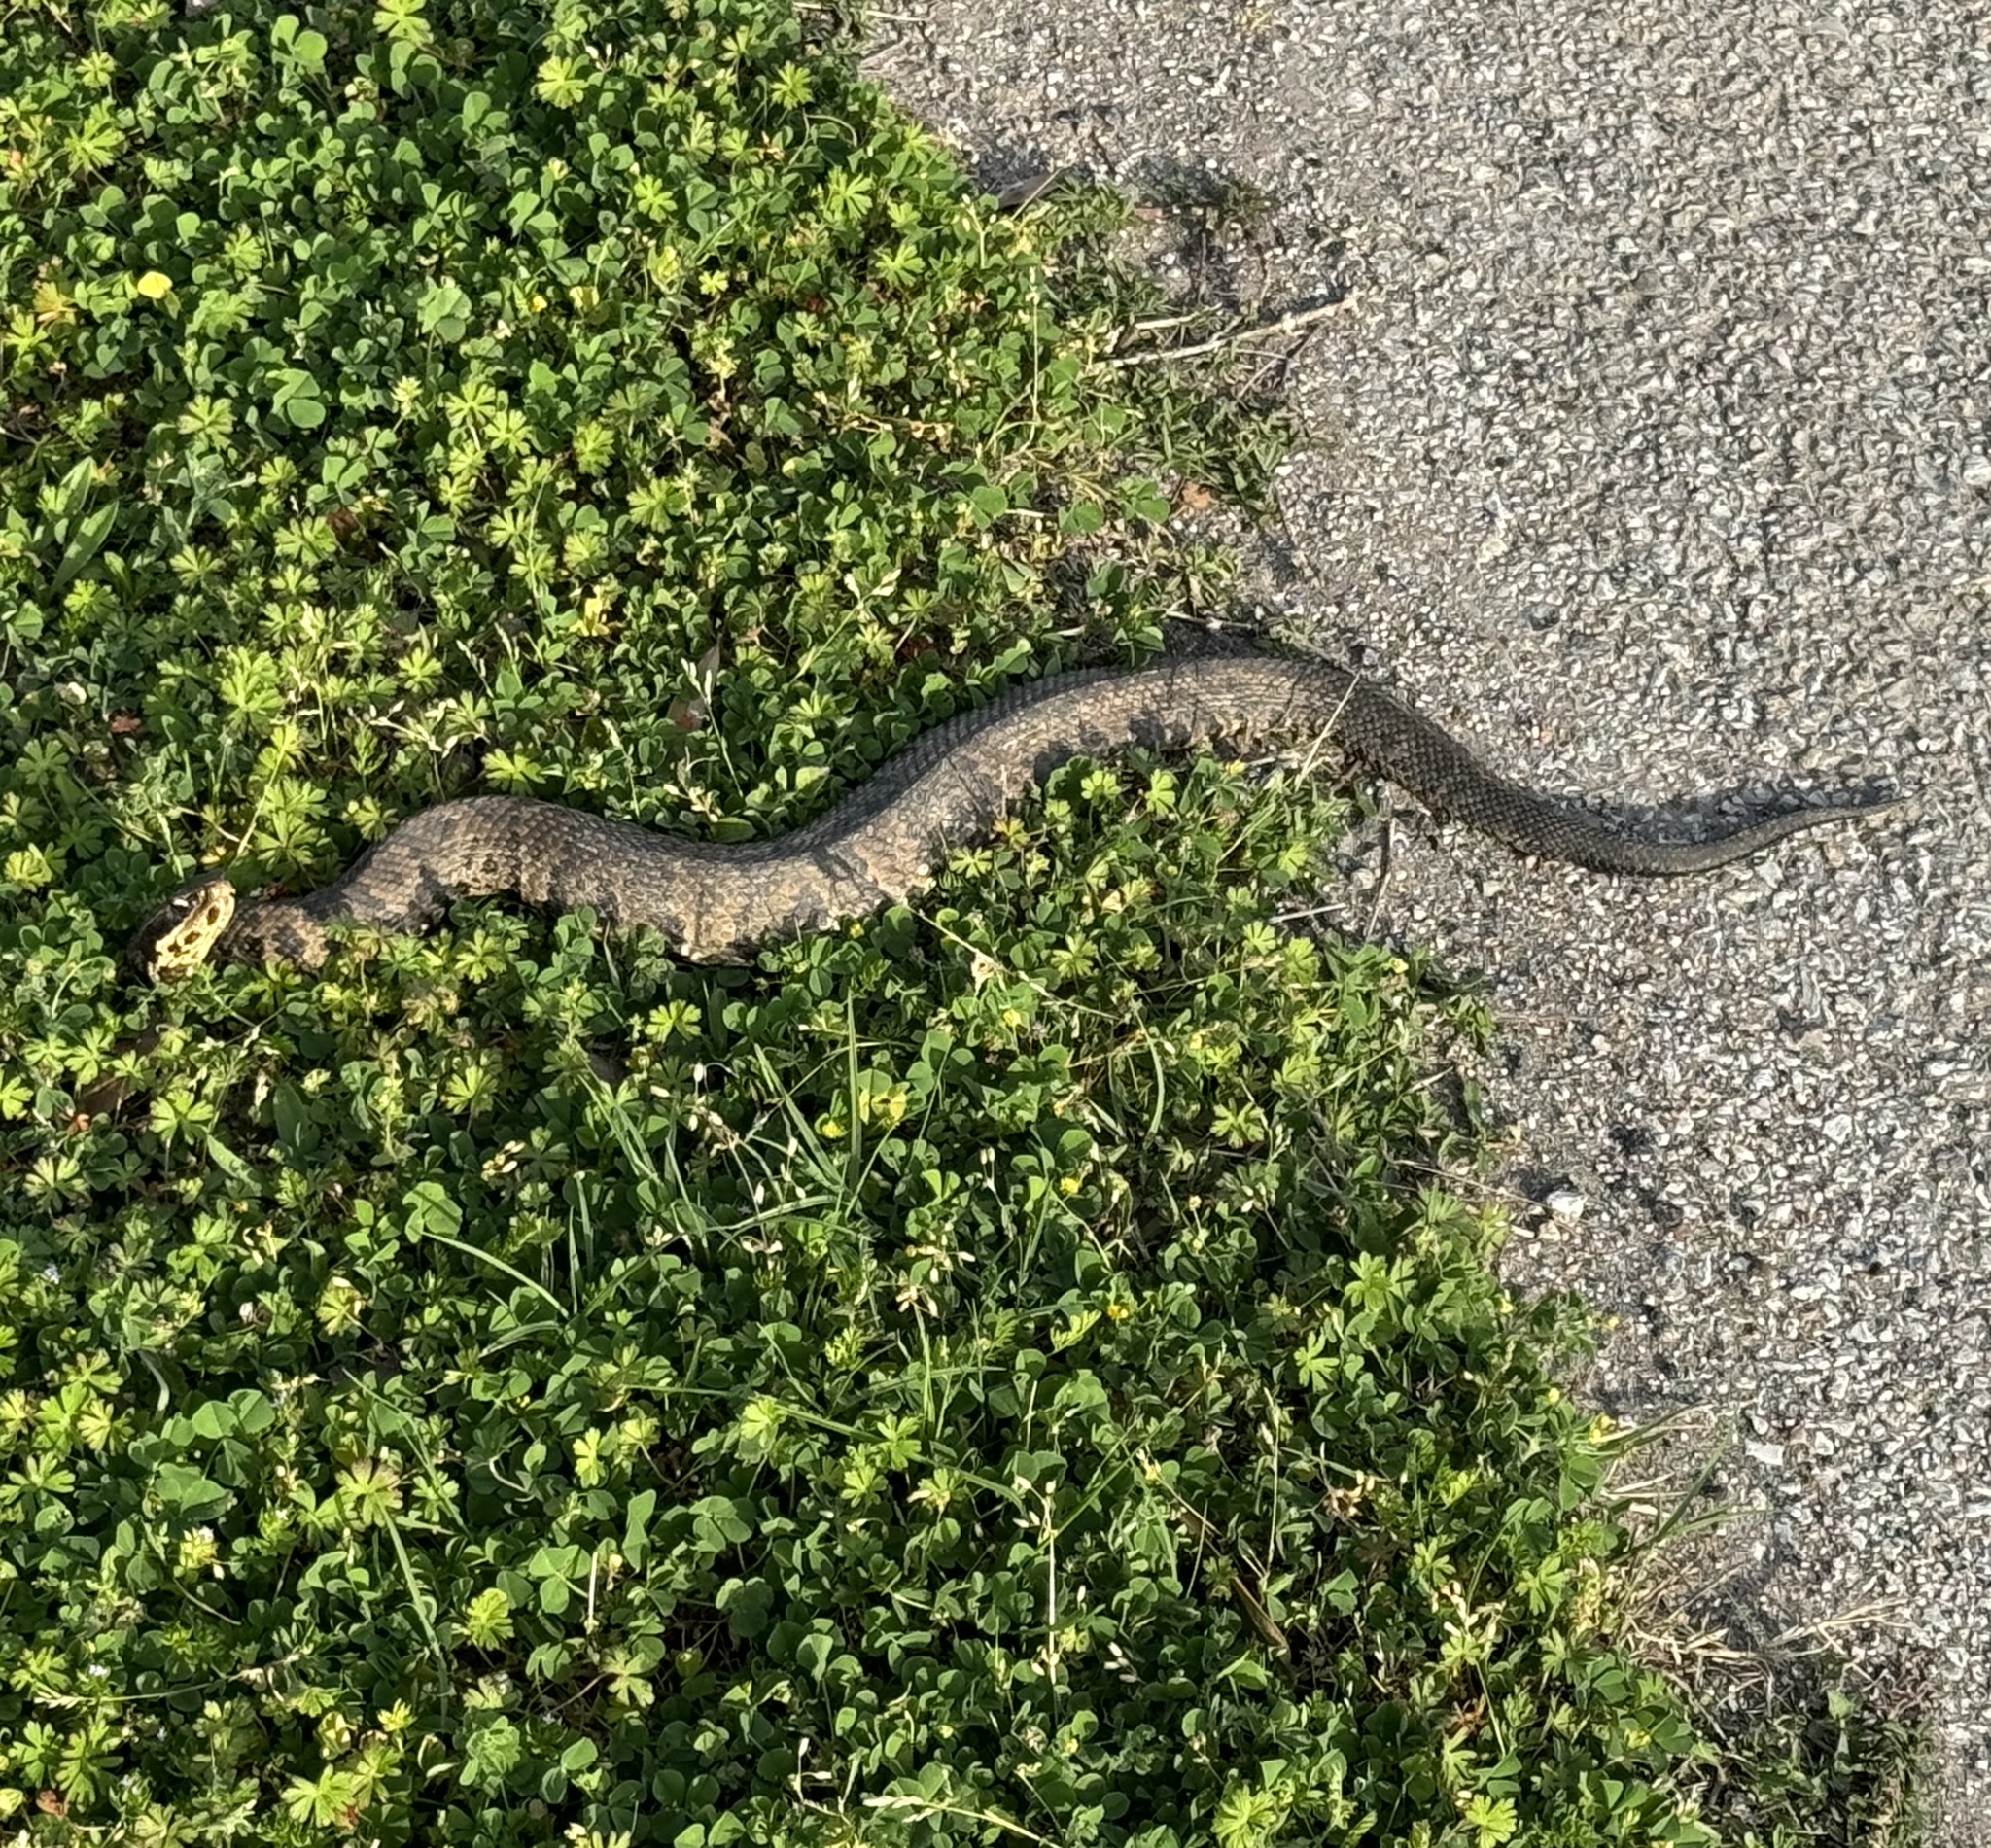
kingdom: Animalia
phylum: Chordata
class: Squamata
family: Viperidae
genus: Agkistrodon
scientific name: Agkistrodon piscivorus
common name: Cottonmouth
